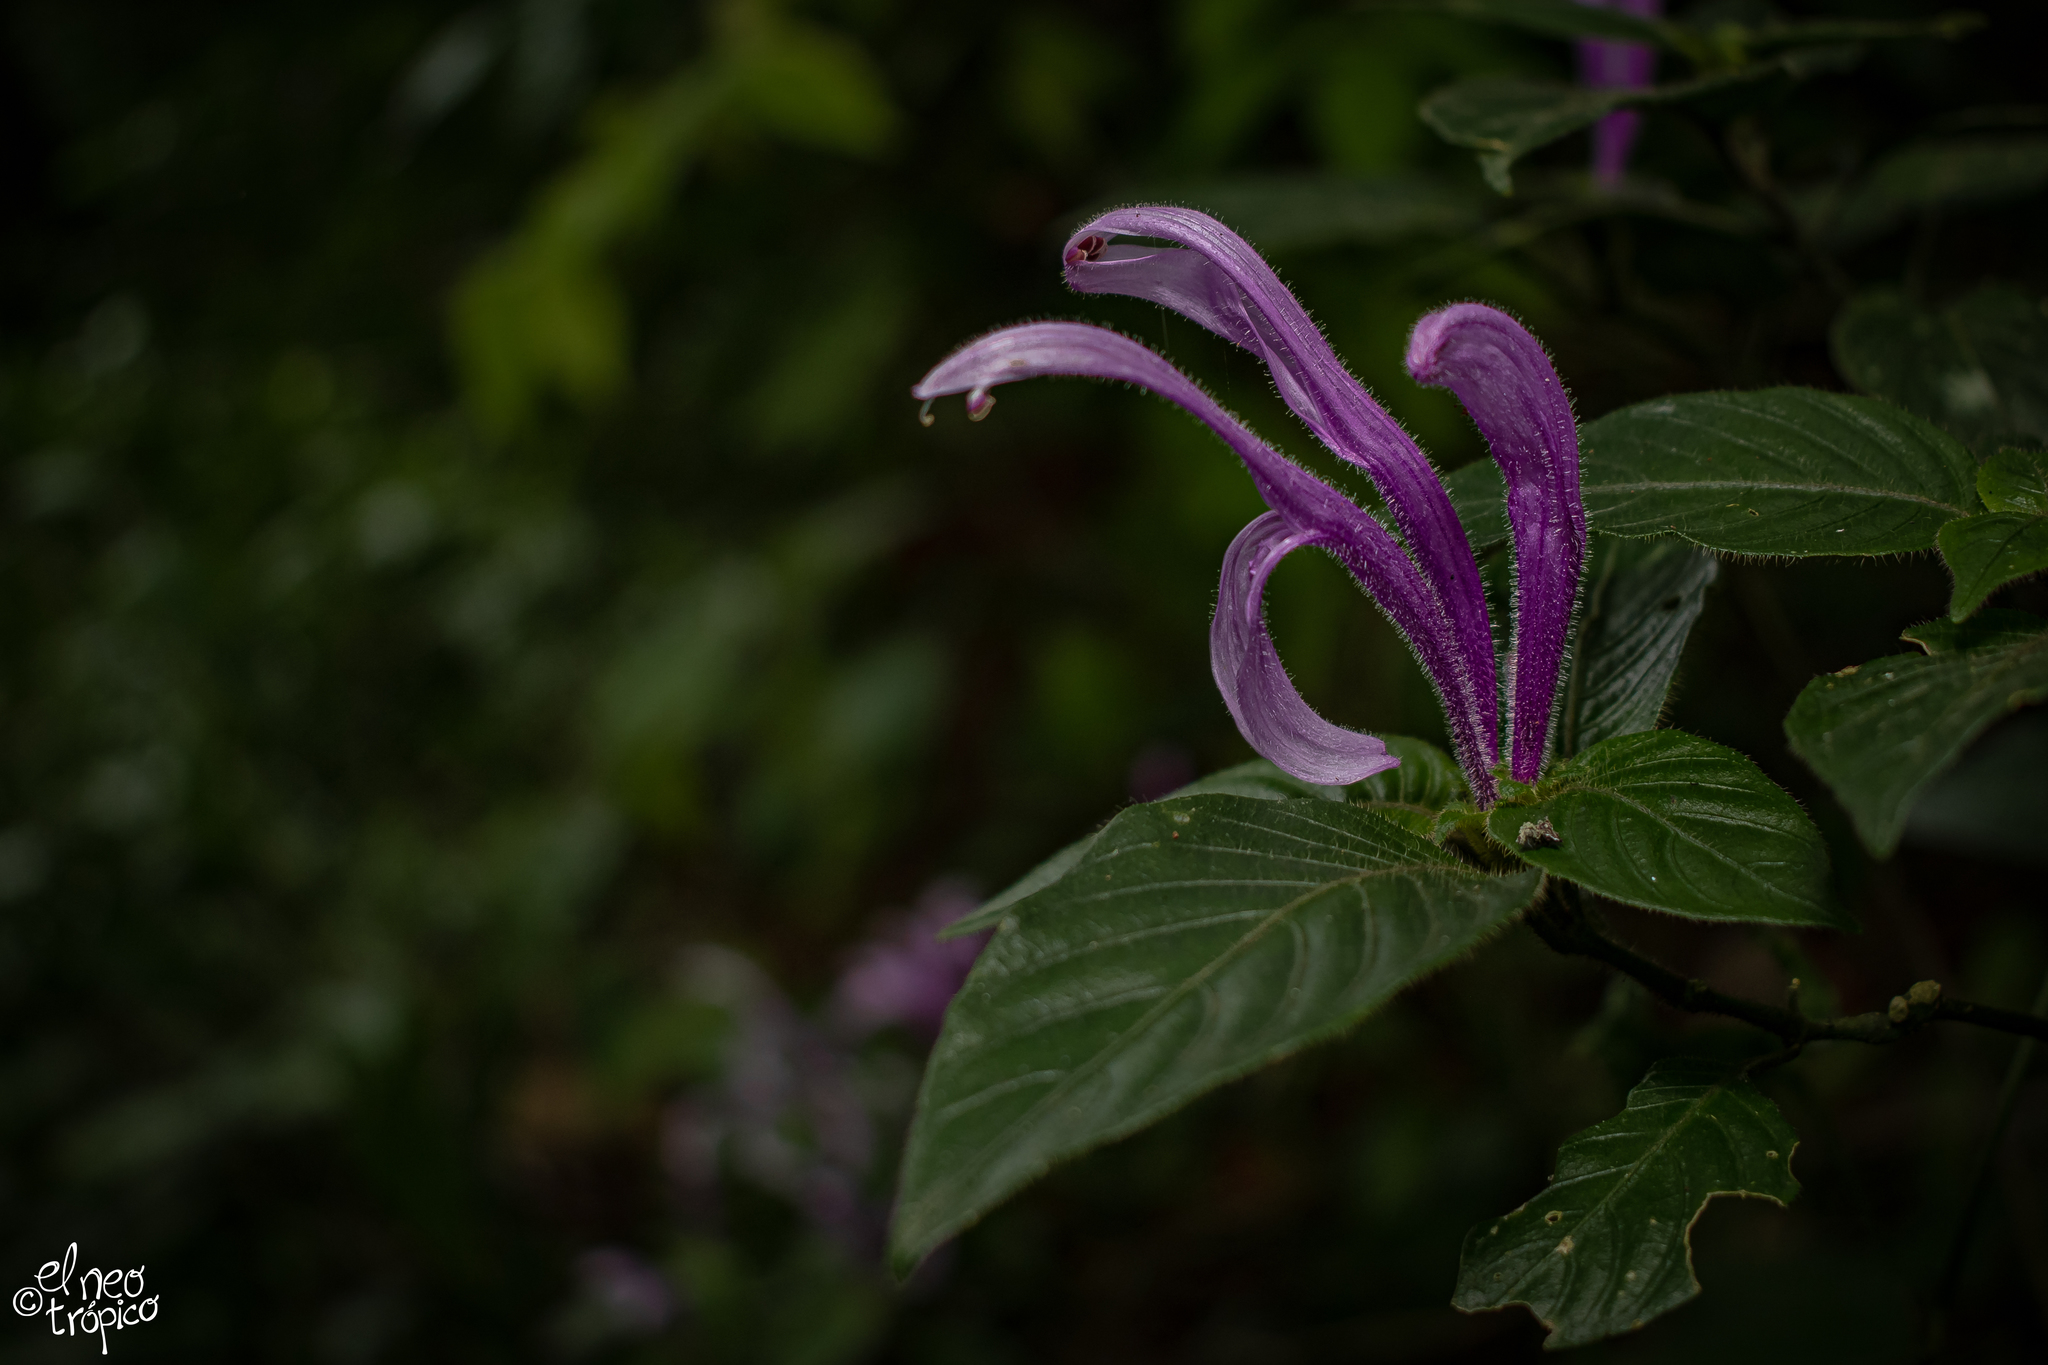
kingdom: Plantae
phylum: Tracheophyta
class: Magnoliopsida
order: Lamiales
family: Acanthaceae
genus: Poikilacanthus
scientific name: Poikilacanthus macranthus
